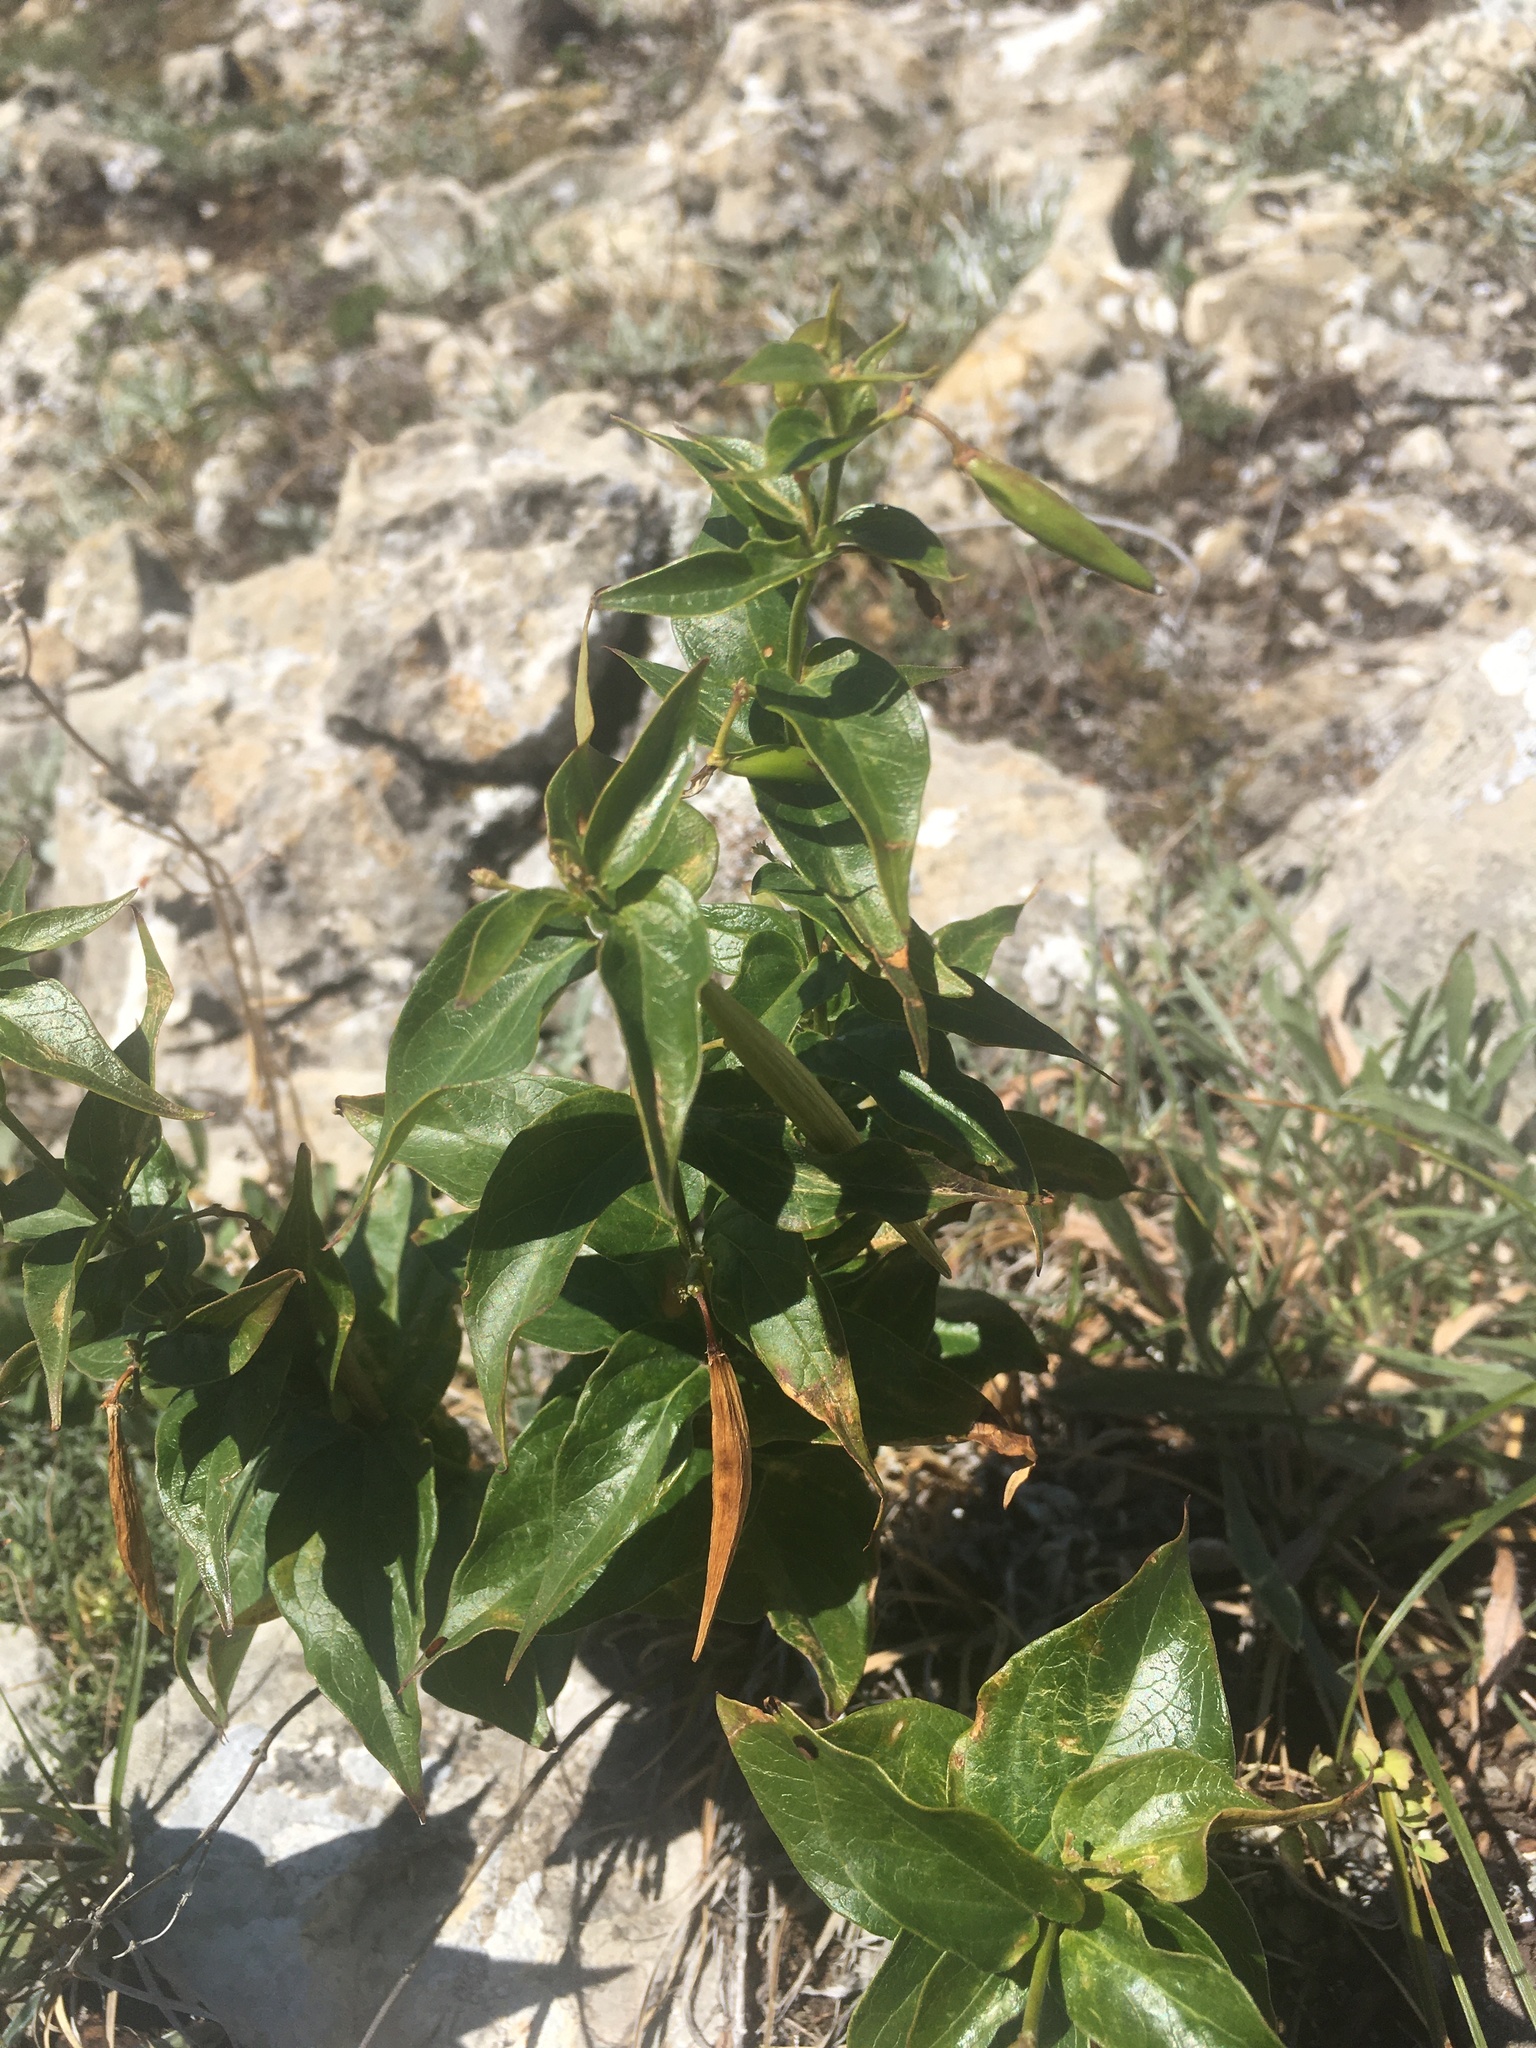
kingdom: Plantae
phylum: Tracheophyta
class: Magnoliopsida
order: Gentianales
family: Apocynaceae
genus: Vincetoxicum
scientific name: Vincetoxicum hirundinaria
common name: White swallowwort
